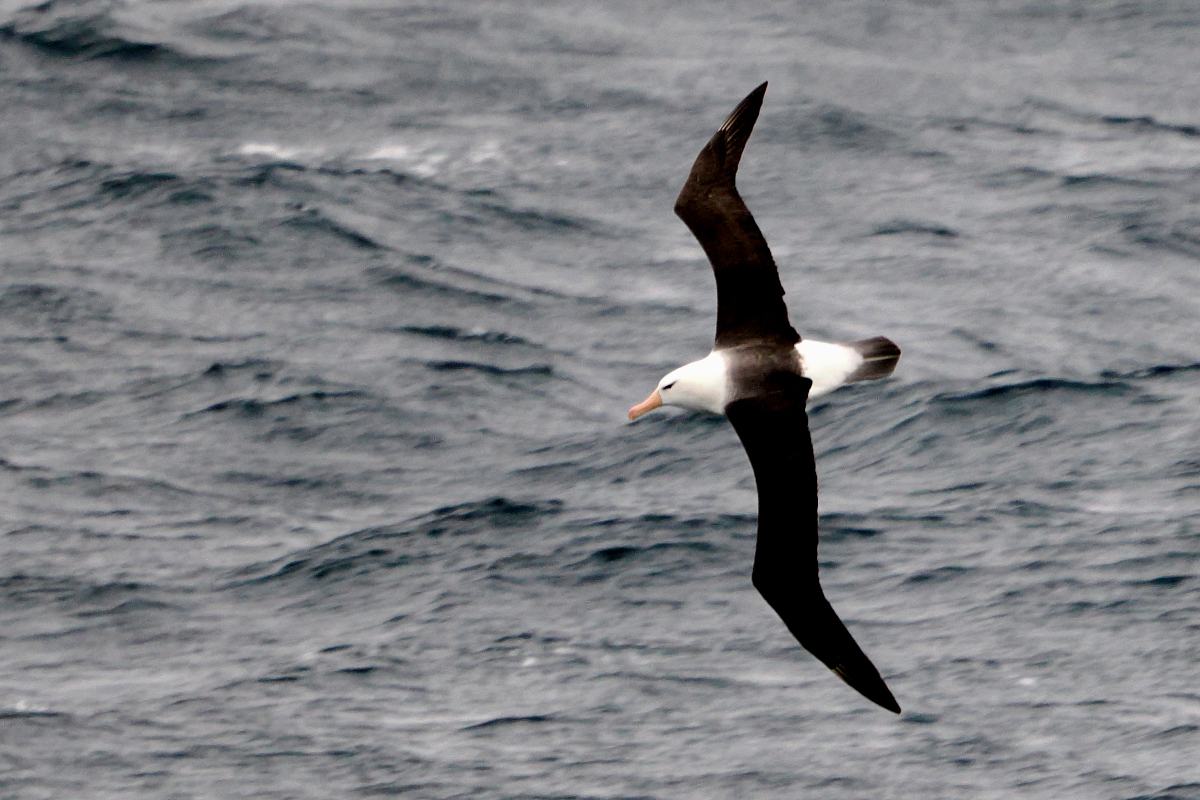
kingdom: Animalia
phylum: Chordata
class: Aves
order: Procellariiformes
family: Diomedeidae
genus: Thalassarche
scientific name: Thalassarche melanophris
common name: Black-browed albatross
